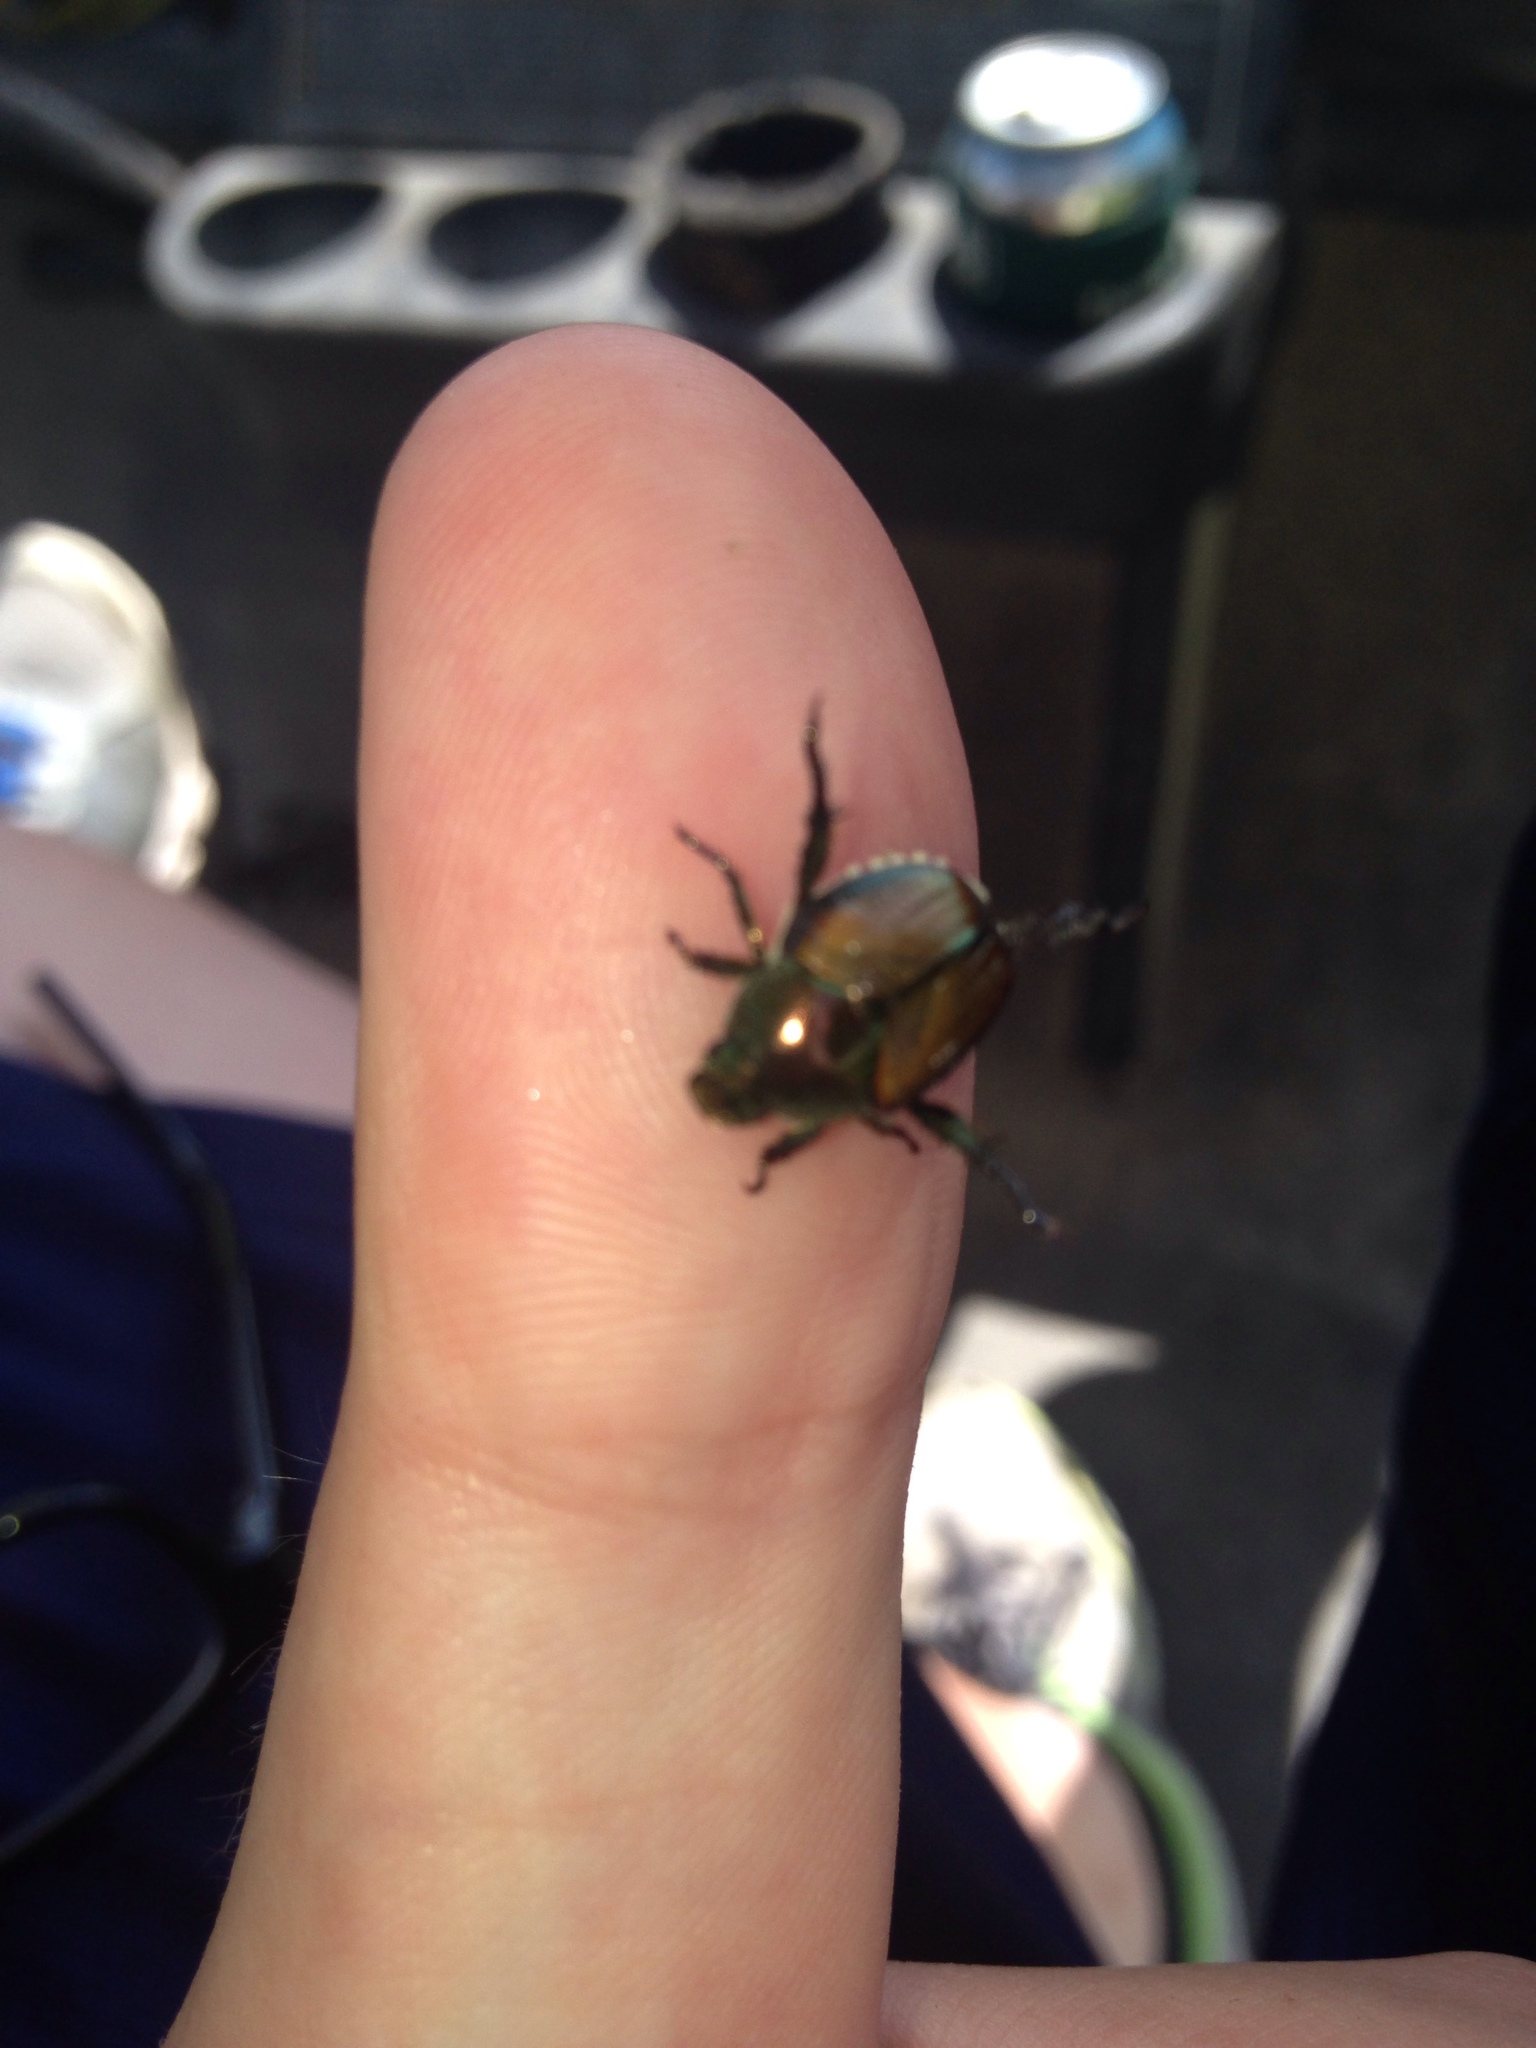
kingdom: Animalia
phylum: Arthropoda
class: Insecta
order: Coleoptera
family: Scarabaeidae
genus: Popillia
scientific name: Popillia japonica
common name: Japanese beetle
